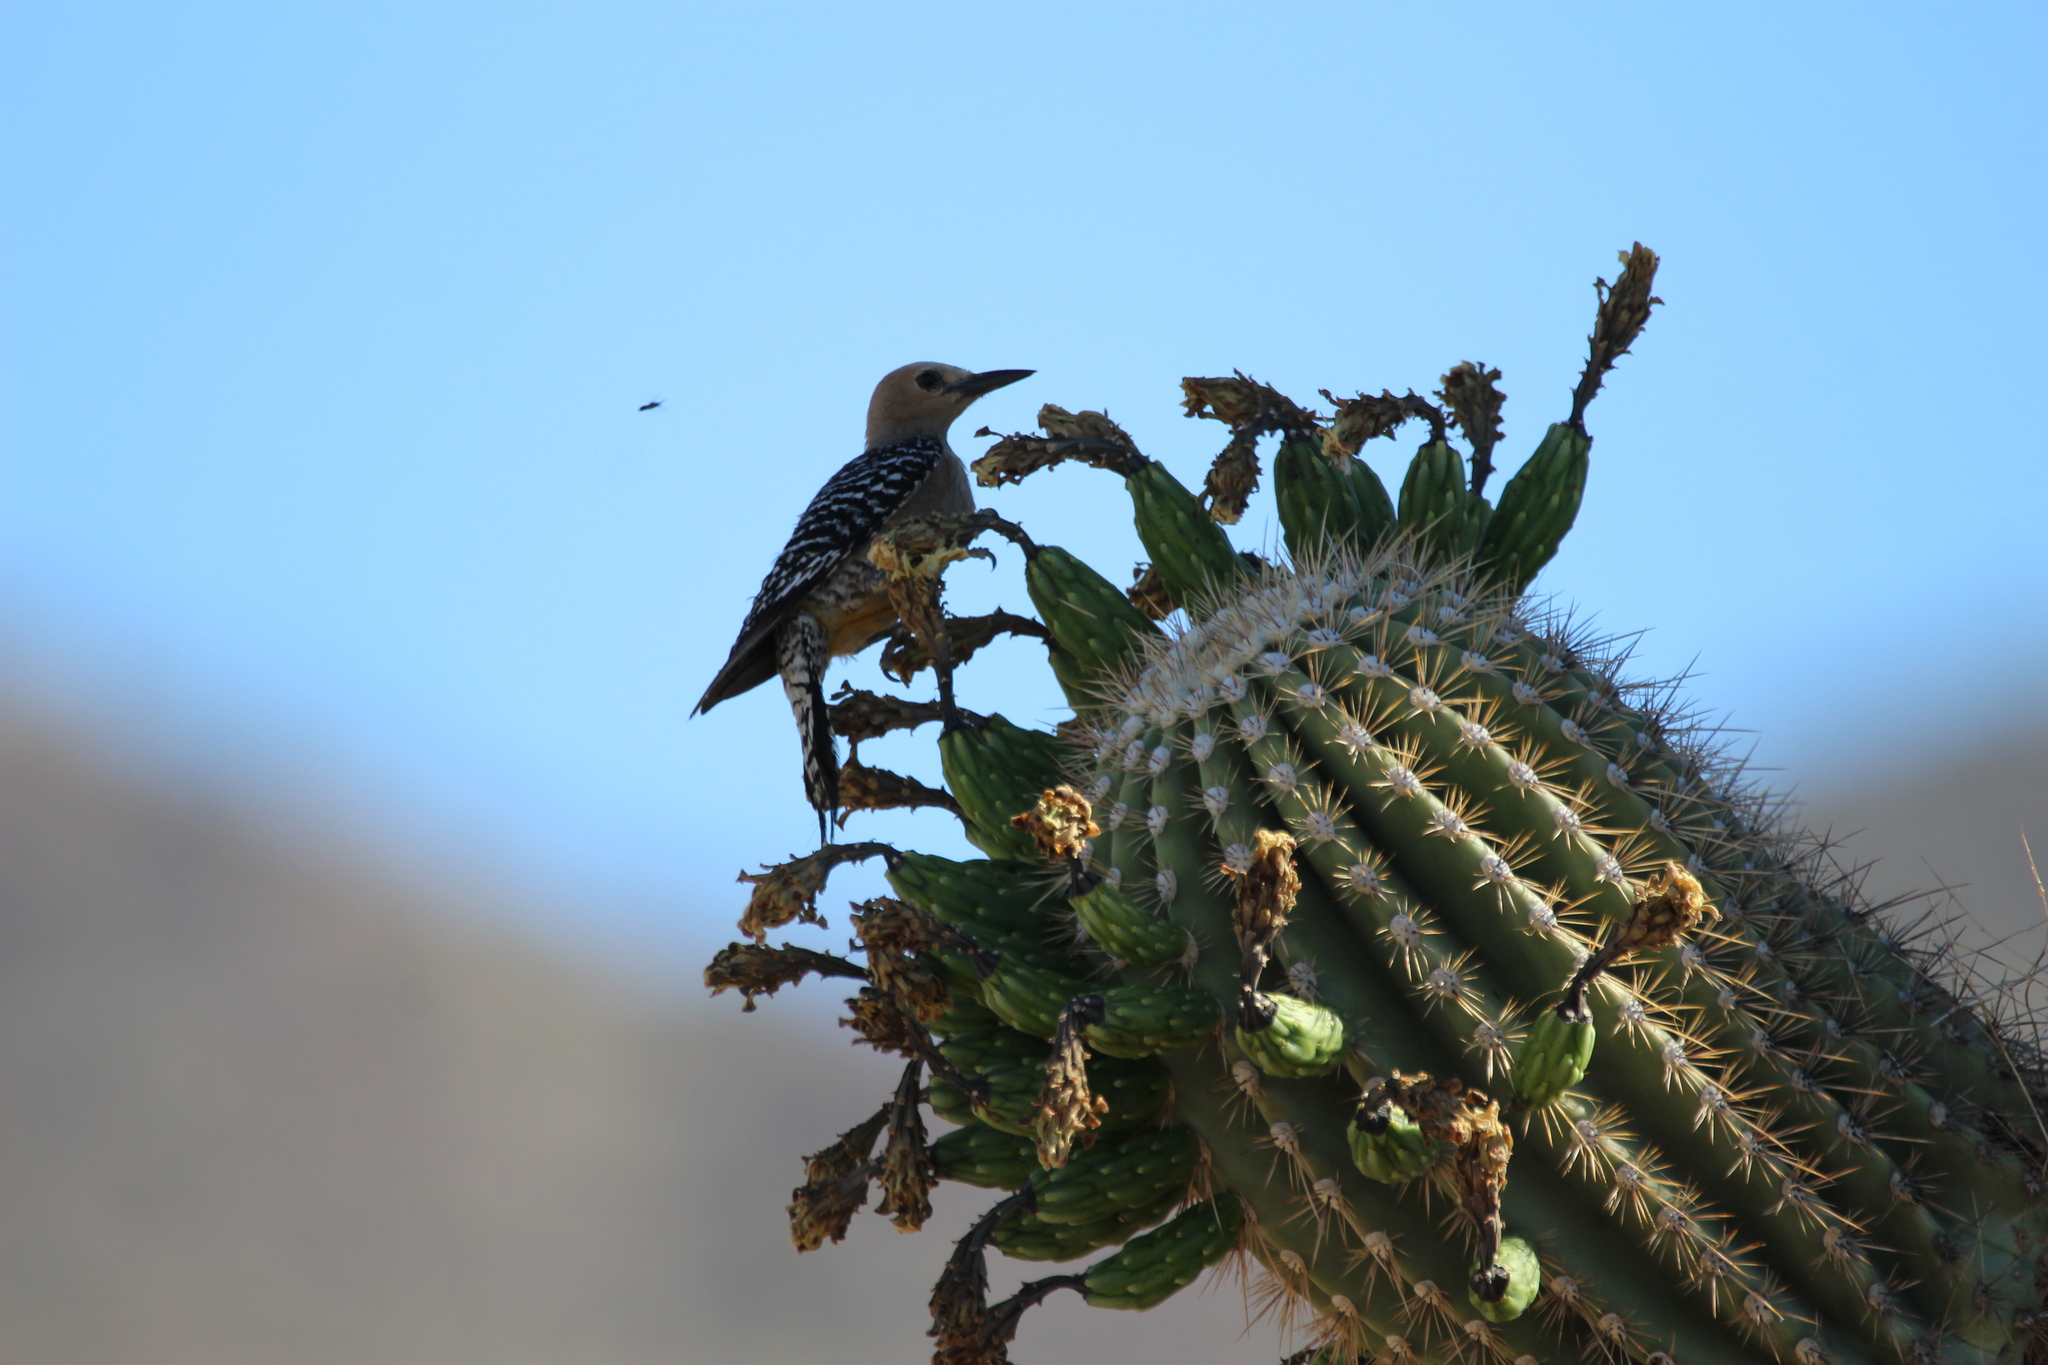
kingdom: Animalia
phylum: Chordata
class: Aves
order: Piciformes
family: Picidae
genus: Melanerpes
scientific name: Melanerpes uropygialis
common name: Gila woodpecker
